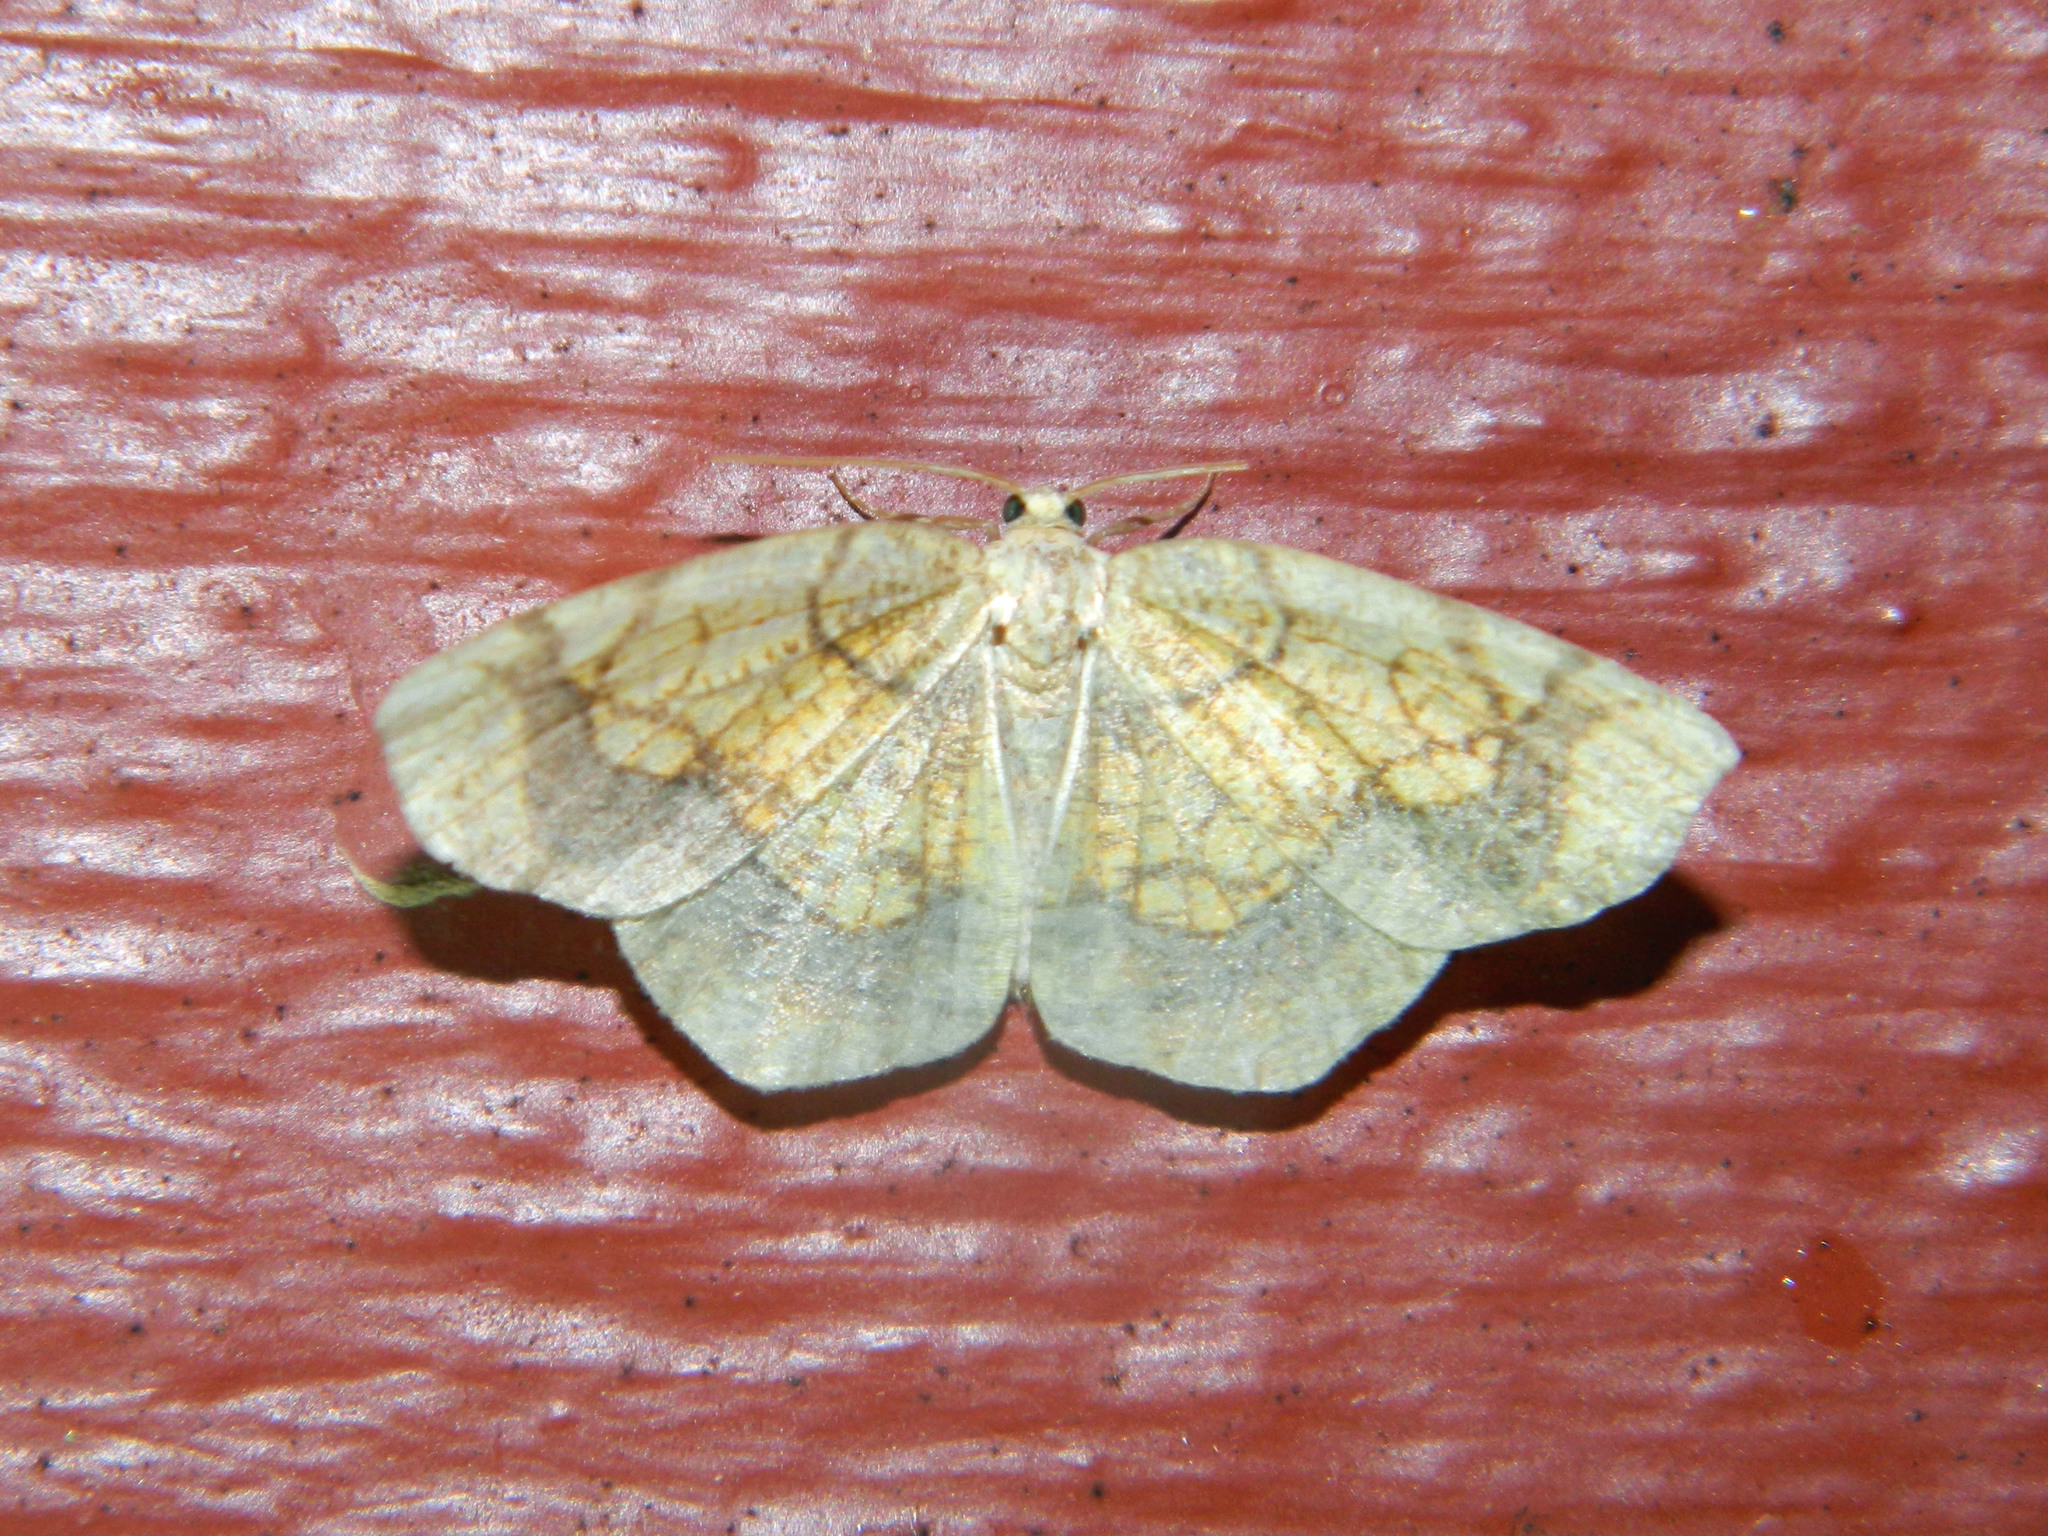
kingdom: Animalia
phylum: Arthropoda
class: Insecta
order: Lepidoptera
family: Geometridae
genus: Nematocampa
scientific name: Nematocampa resistaria
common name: Horned spanworm moth
